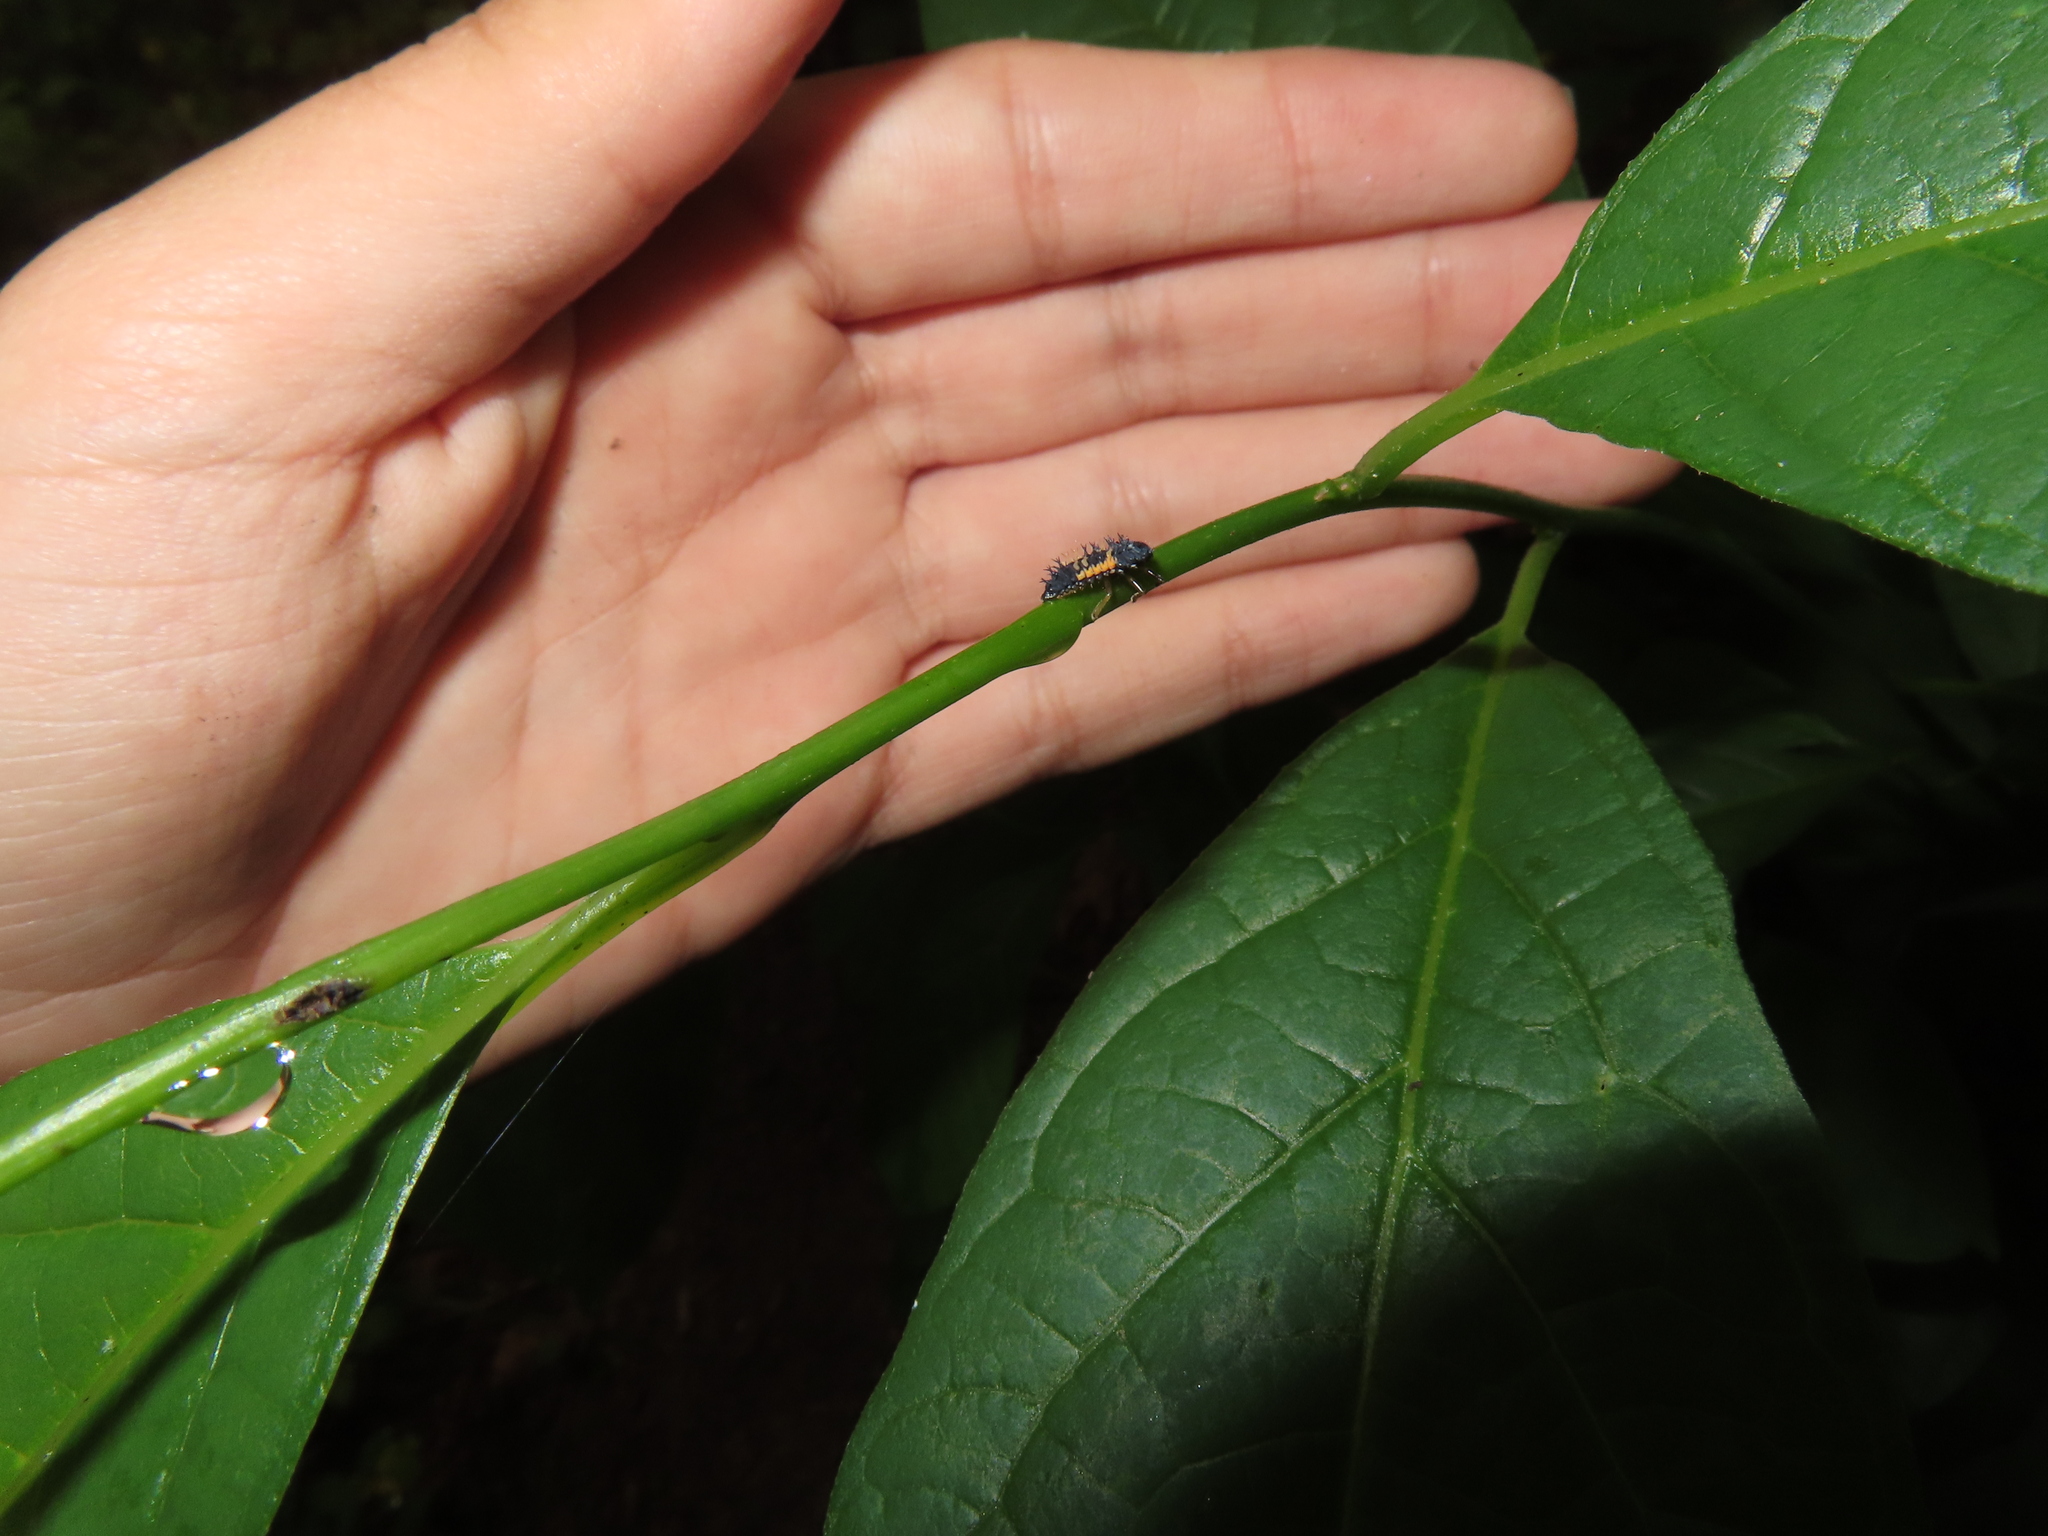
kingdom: Animalia
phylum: Arthropoda
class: Insecta
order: Coleoptera
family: Coccinellidae
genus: Harmonia
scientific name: Harmonia axyridis
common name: Harlequin ladybird
